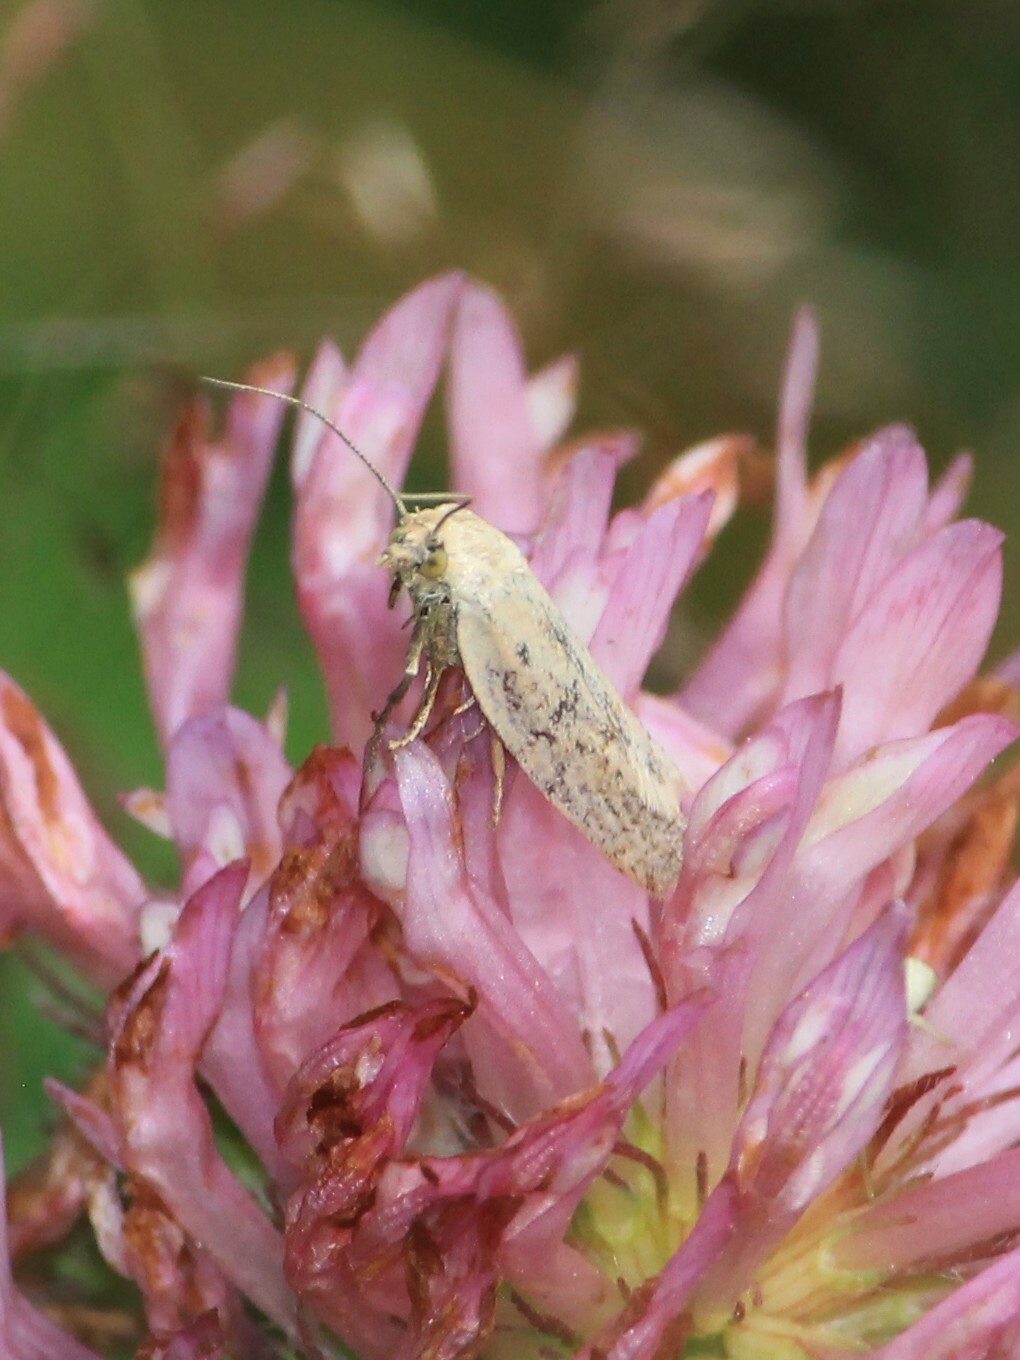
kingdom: Animalia
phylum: Arthropoda
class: Insecta
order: Lepidoptera
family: Tortricidae
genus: Eana
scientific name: Eana osseana
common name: Dotted shade
